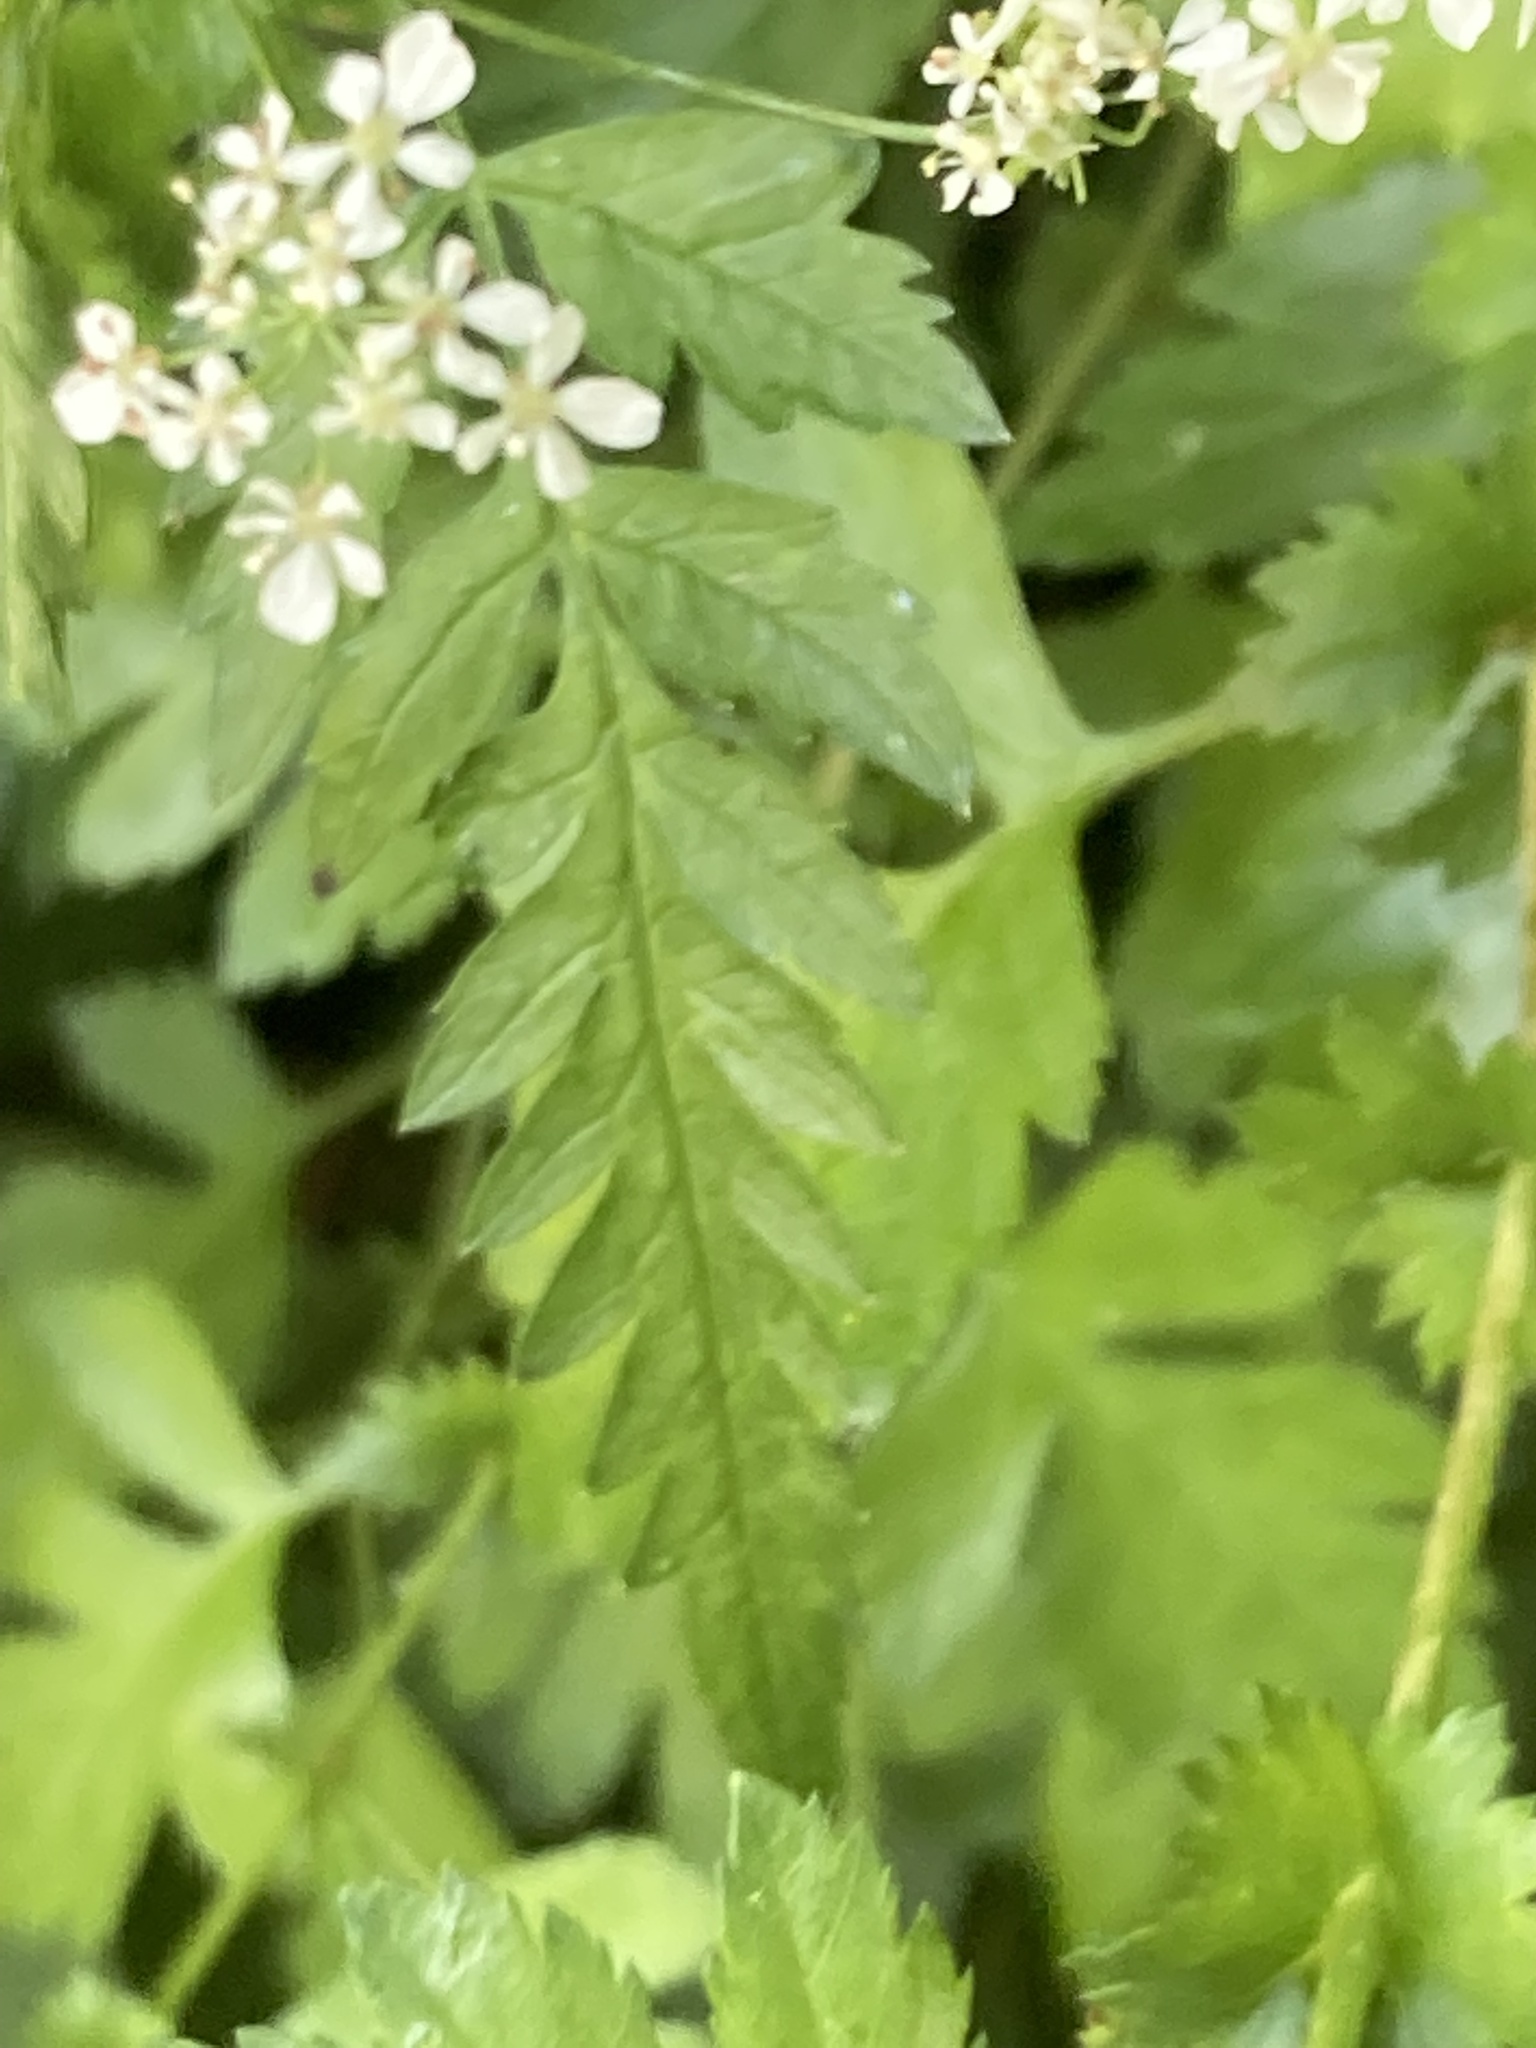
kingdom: Plantae
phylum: Tracheophyta
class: Magnoliopsida
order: Apiales
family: Apiaceae
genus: Anthriscus
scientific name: Anthriscus sylvestris
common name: Cow parsley
